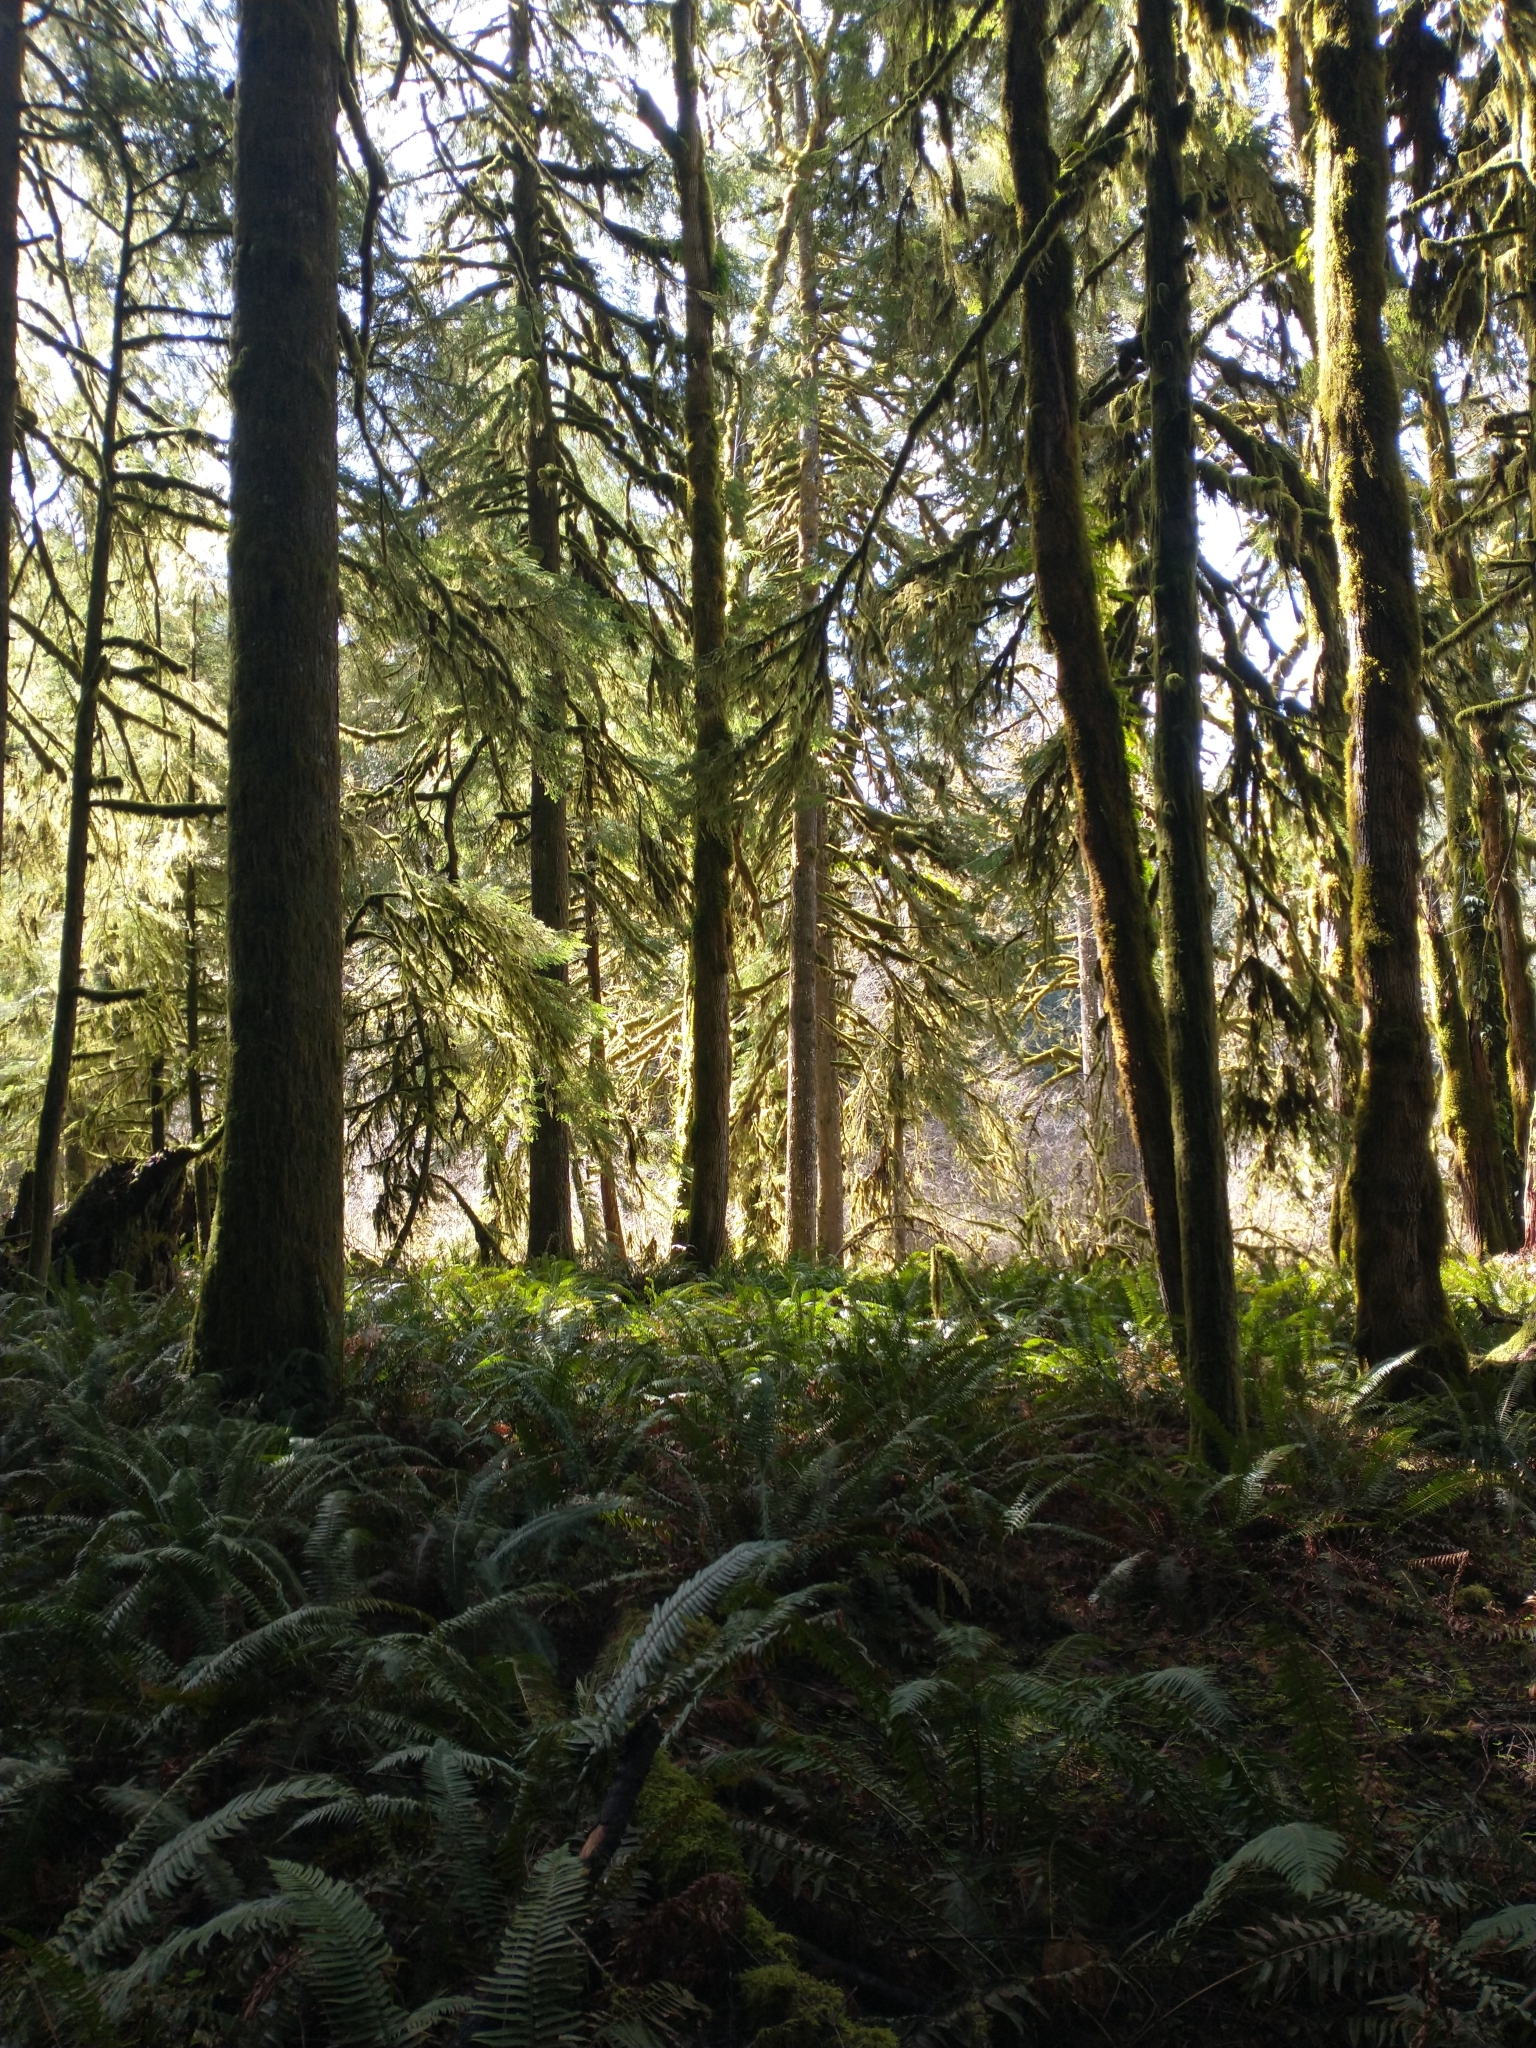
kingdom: Plantae
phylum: Tracheophyta
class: Pinopsida
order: Pinales
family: Pinaceae
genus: Tsuga
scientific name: Tsuga heterophylla
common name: Western hemlock
